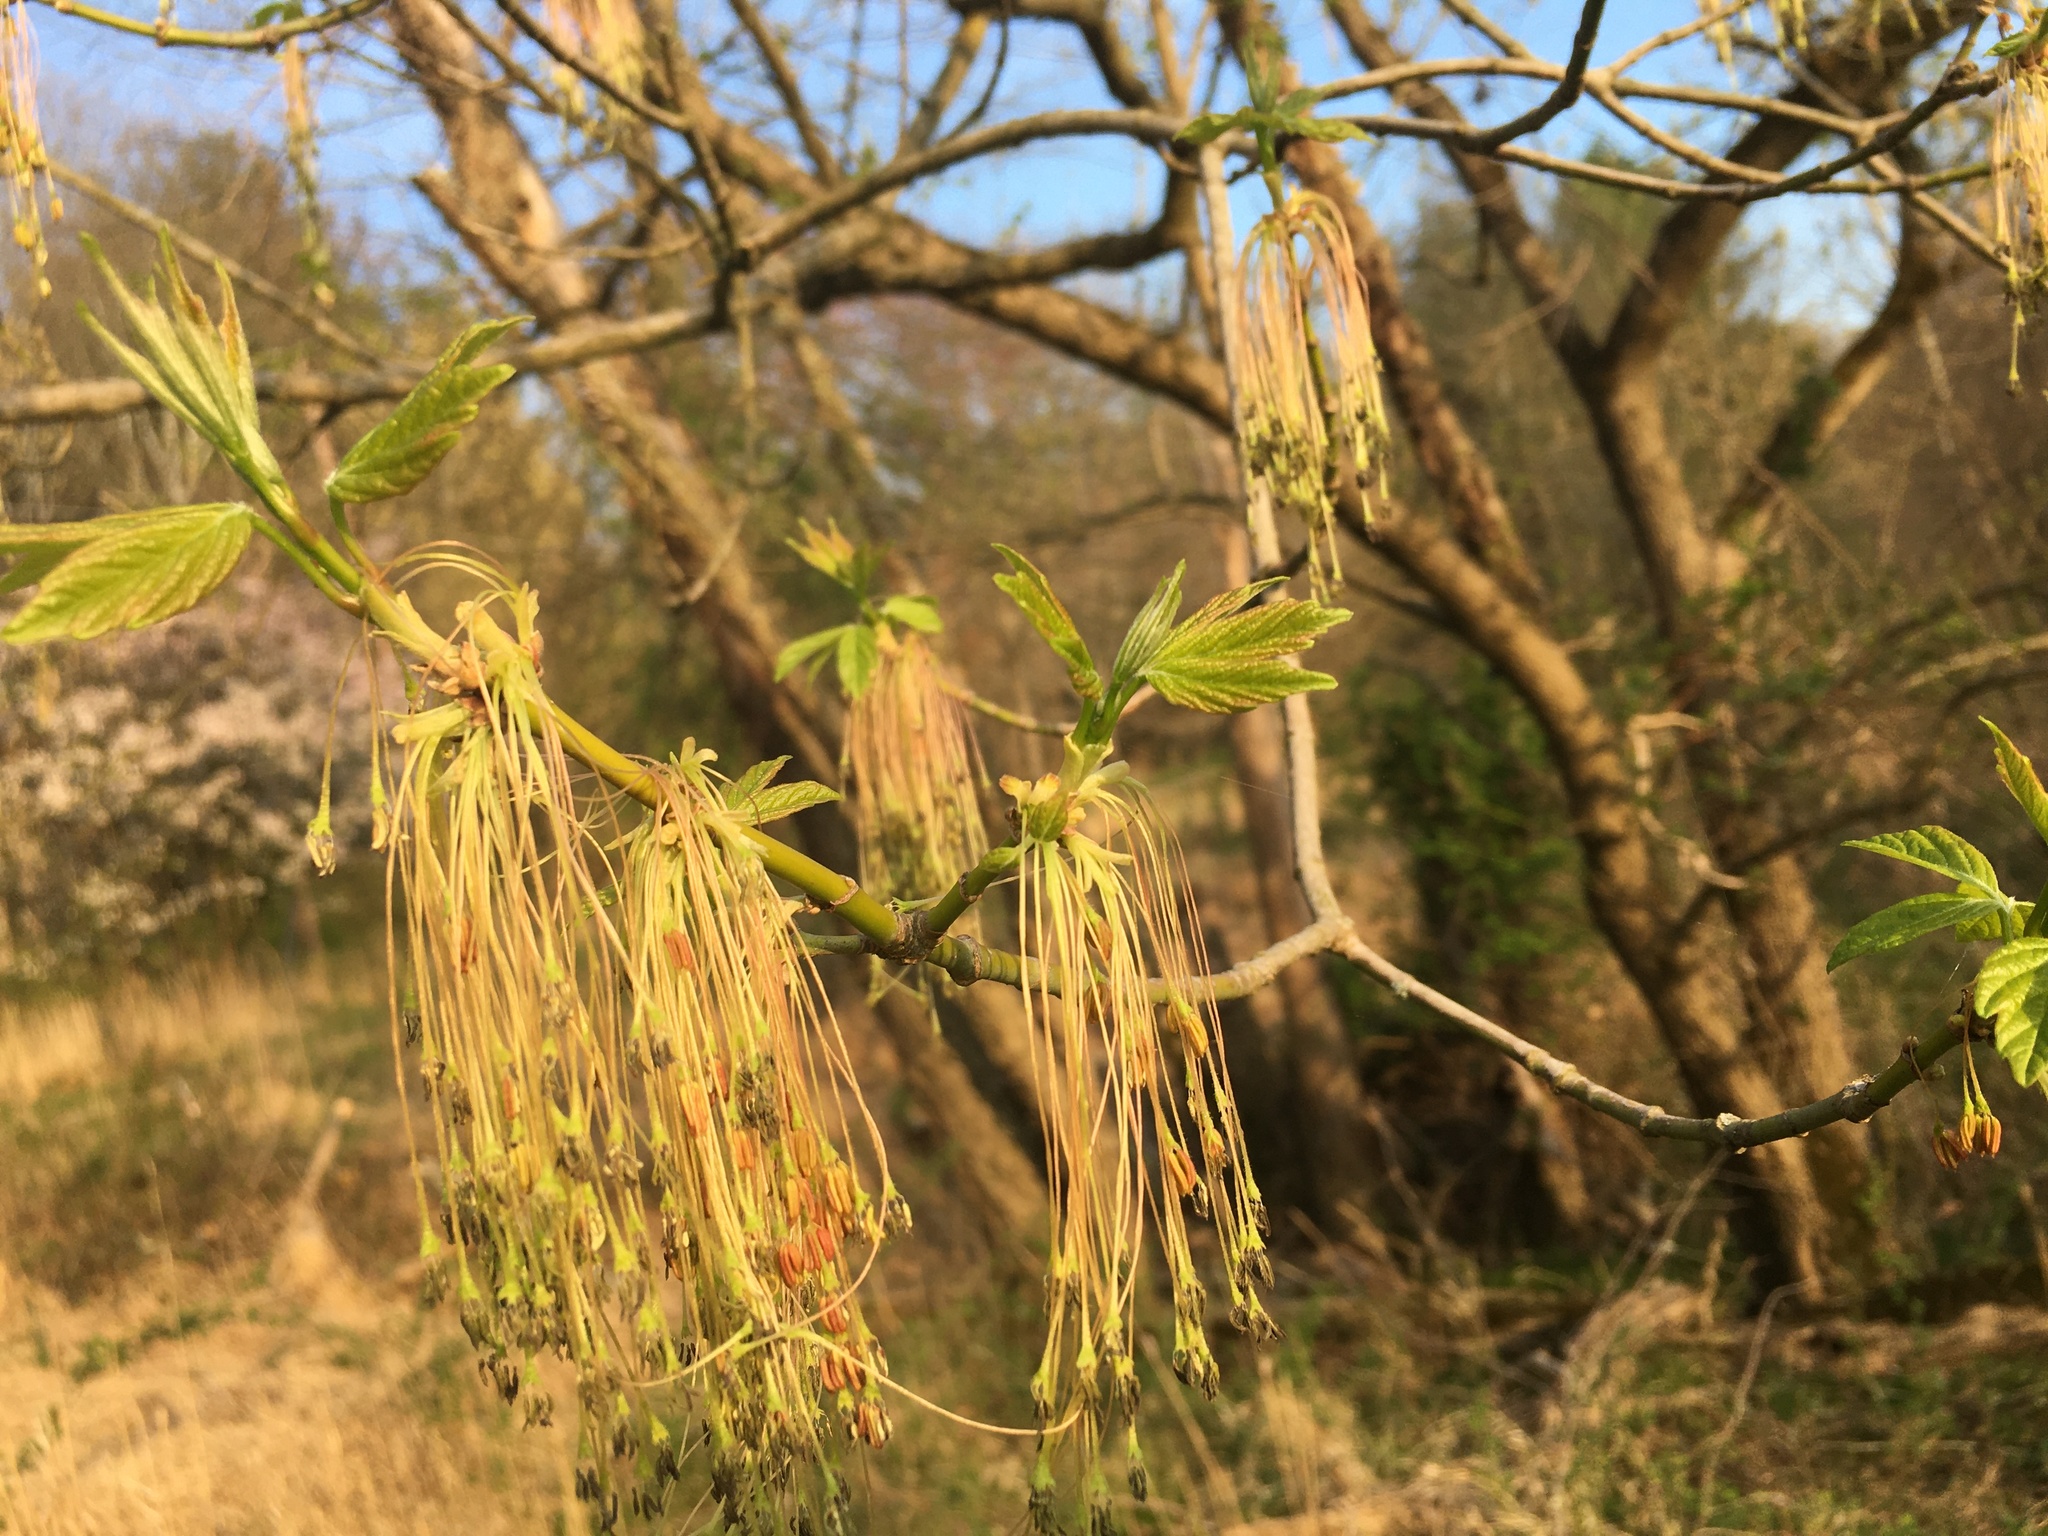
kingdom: Plantae
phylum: Tracheophyta
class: Magnoliopsida
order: Sapindales
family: Sapindaceae
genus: Acer
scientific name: Acer negundo
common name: Ashleaf maple
